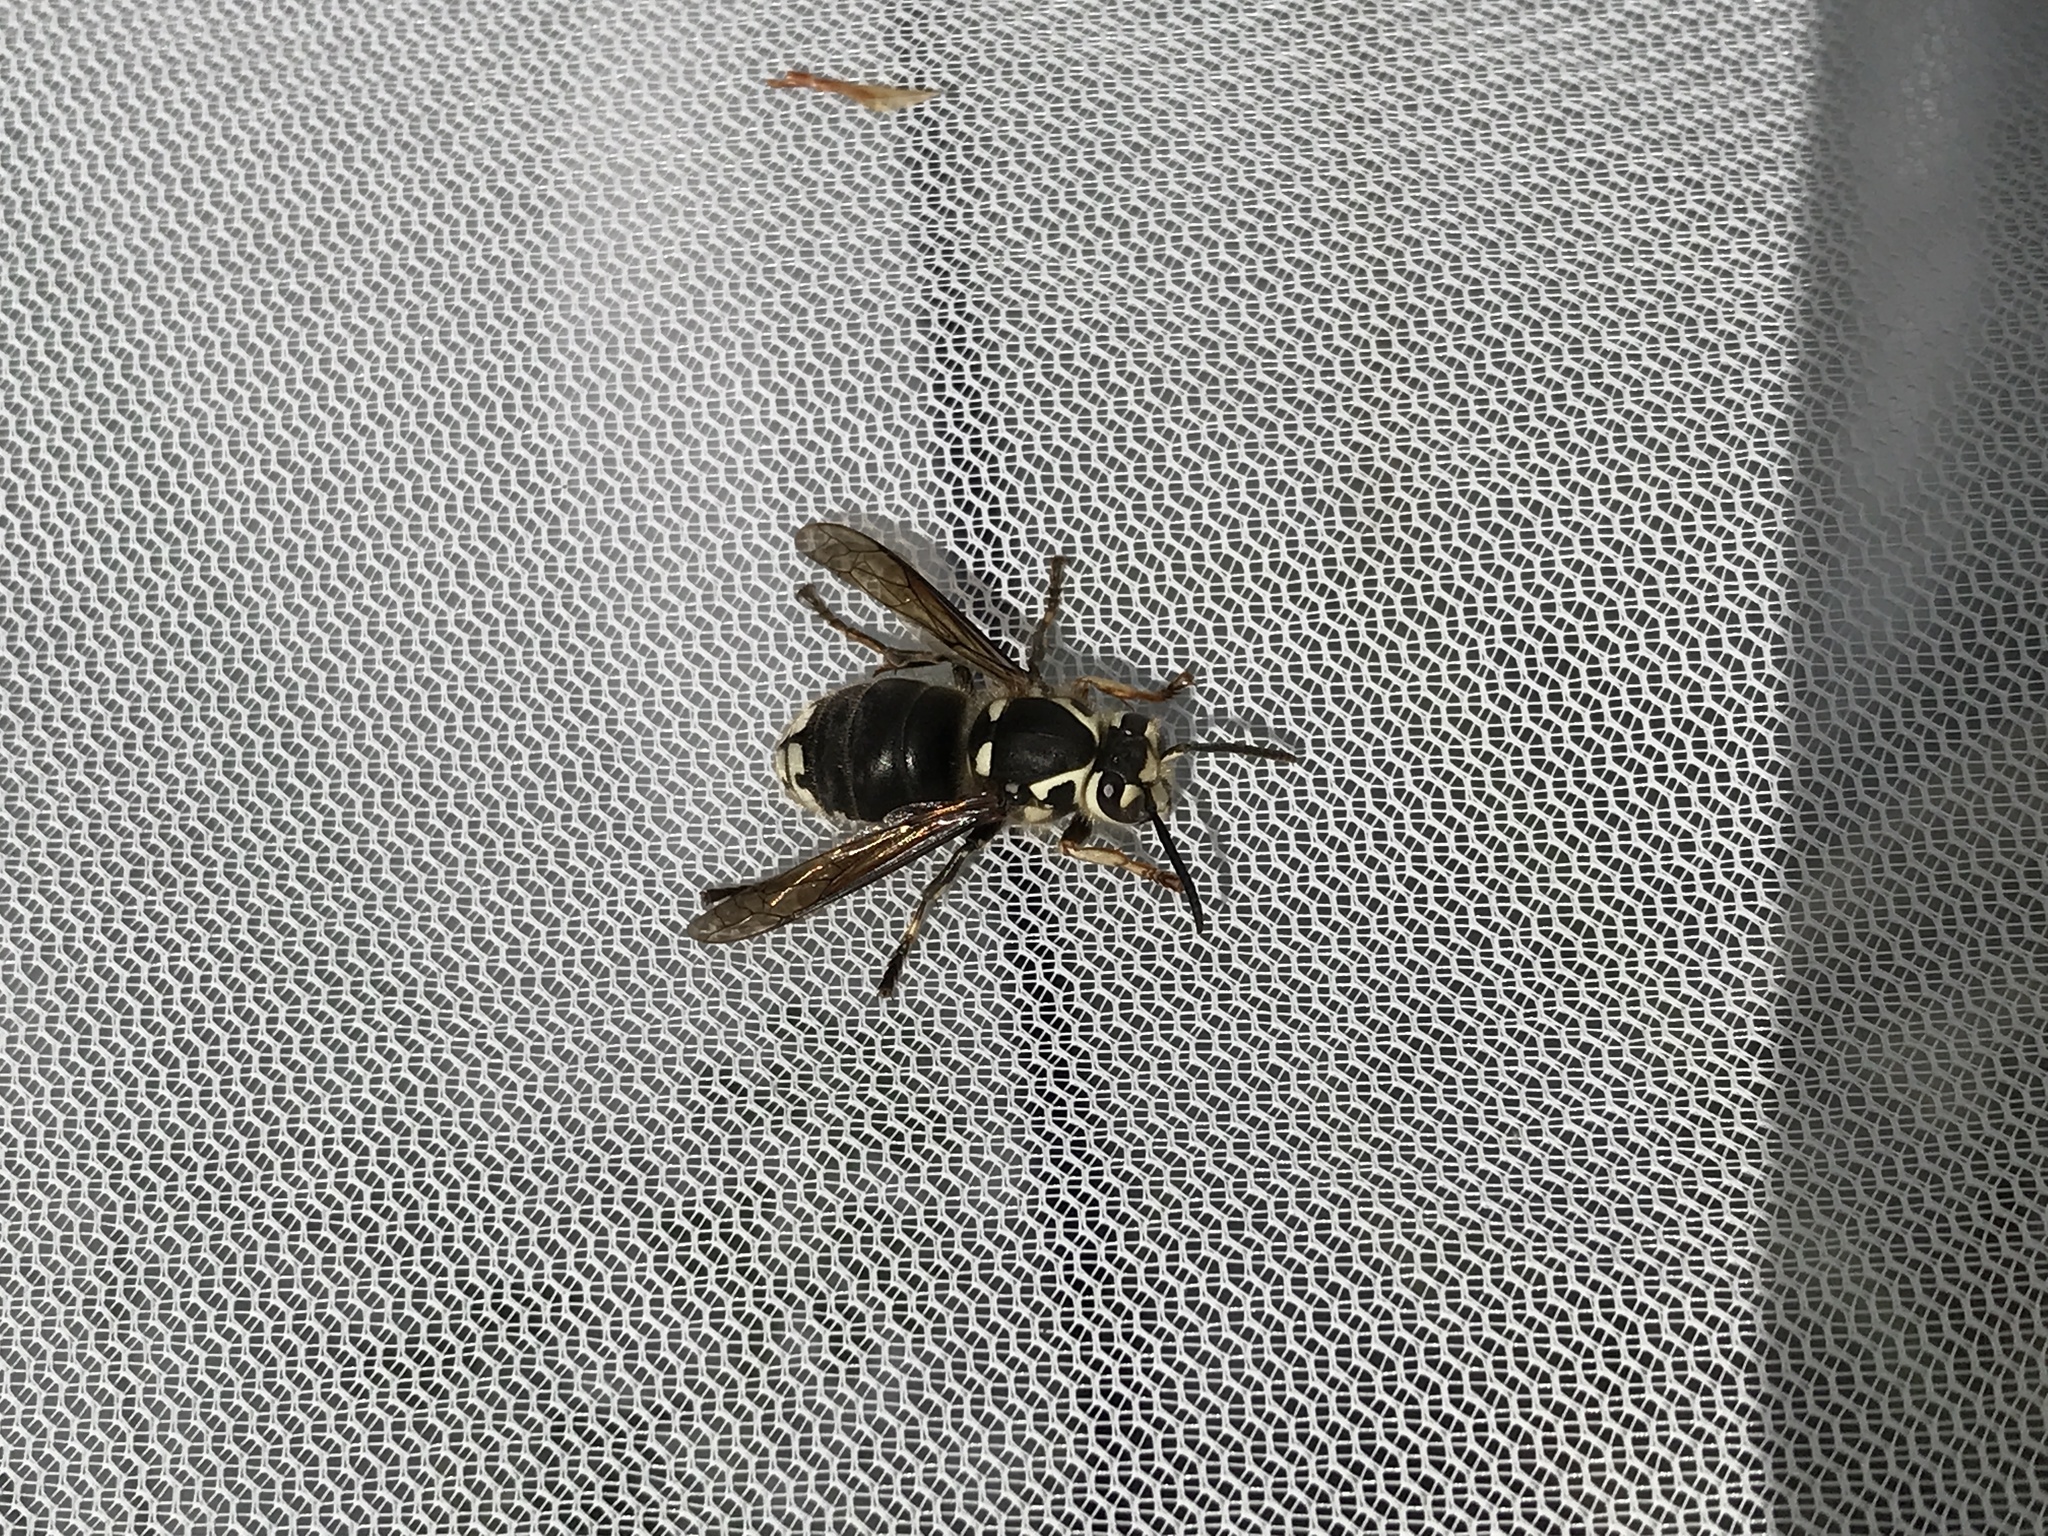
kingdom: Animalia
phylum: Arthropoda
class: Insecta
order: Hymenoptera
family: Vespidae
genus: Dolichovespula
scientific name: Dolichovespula maculata
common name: Bald-faced hornet
